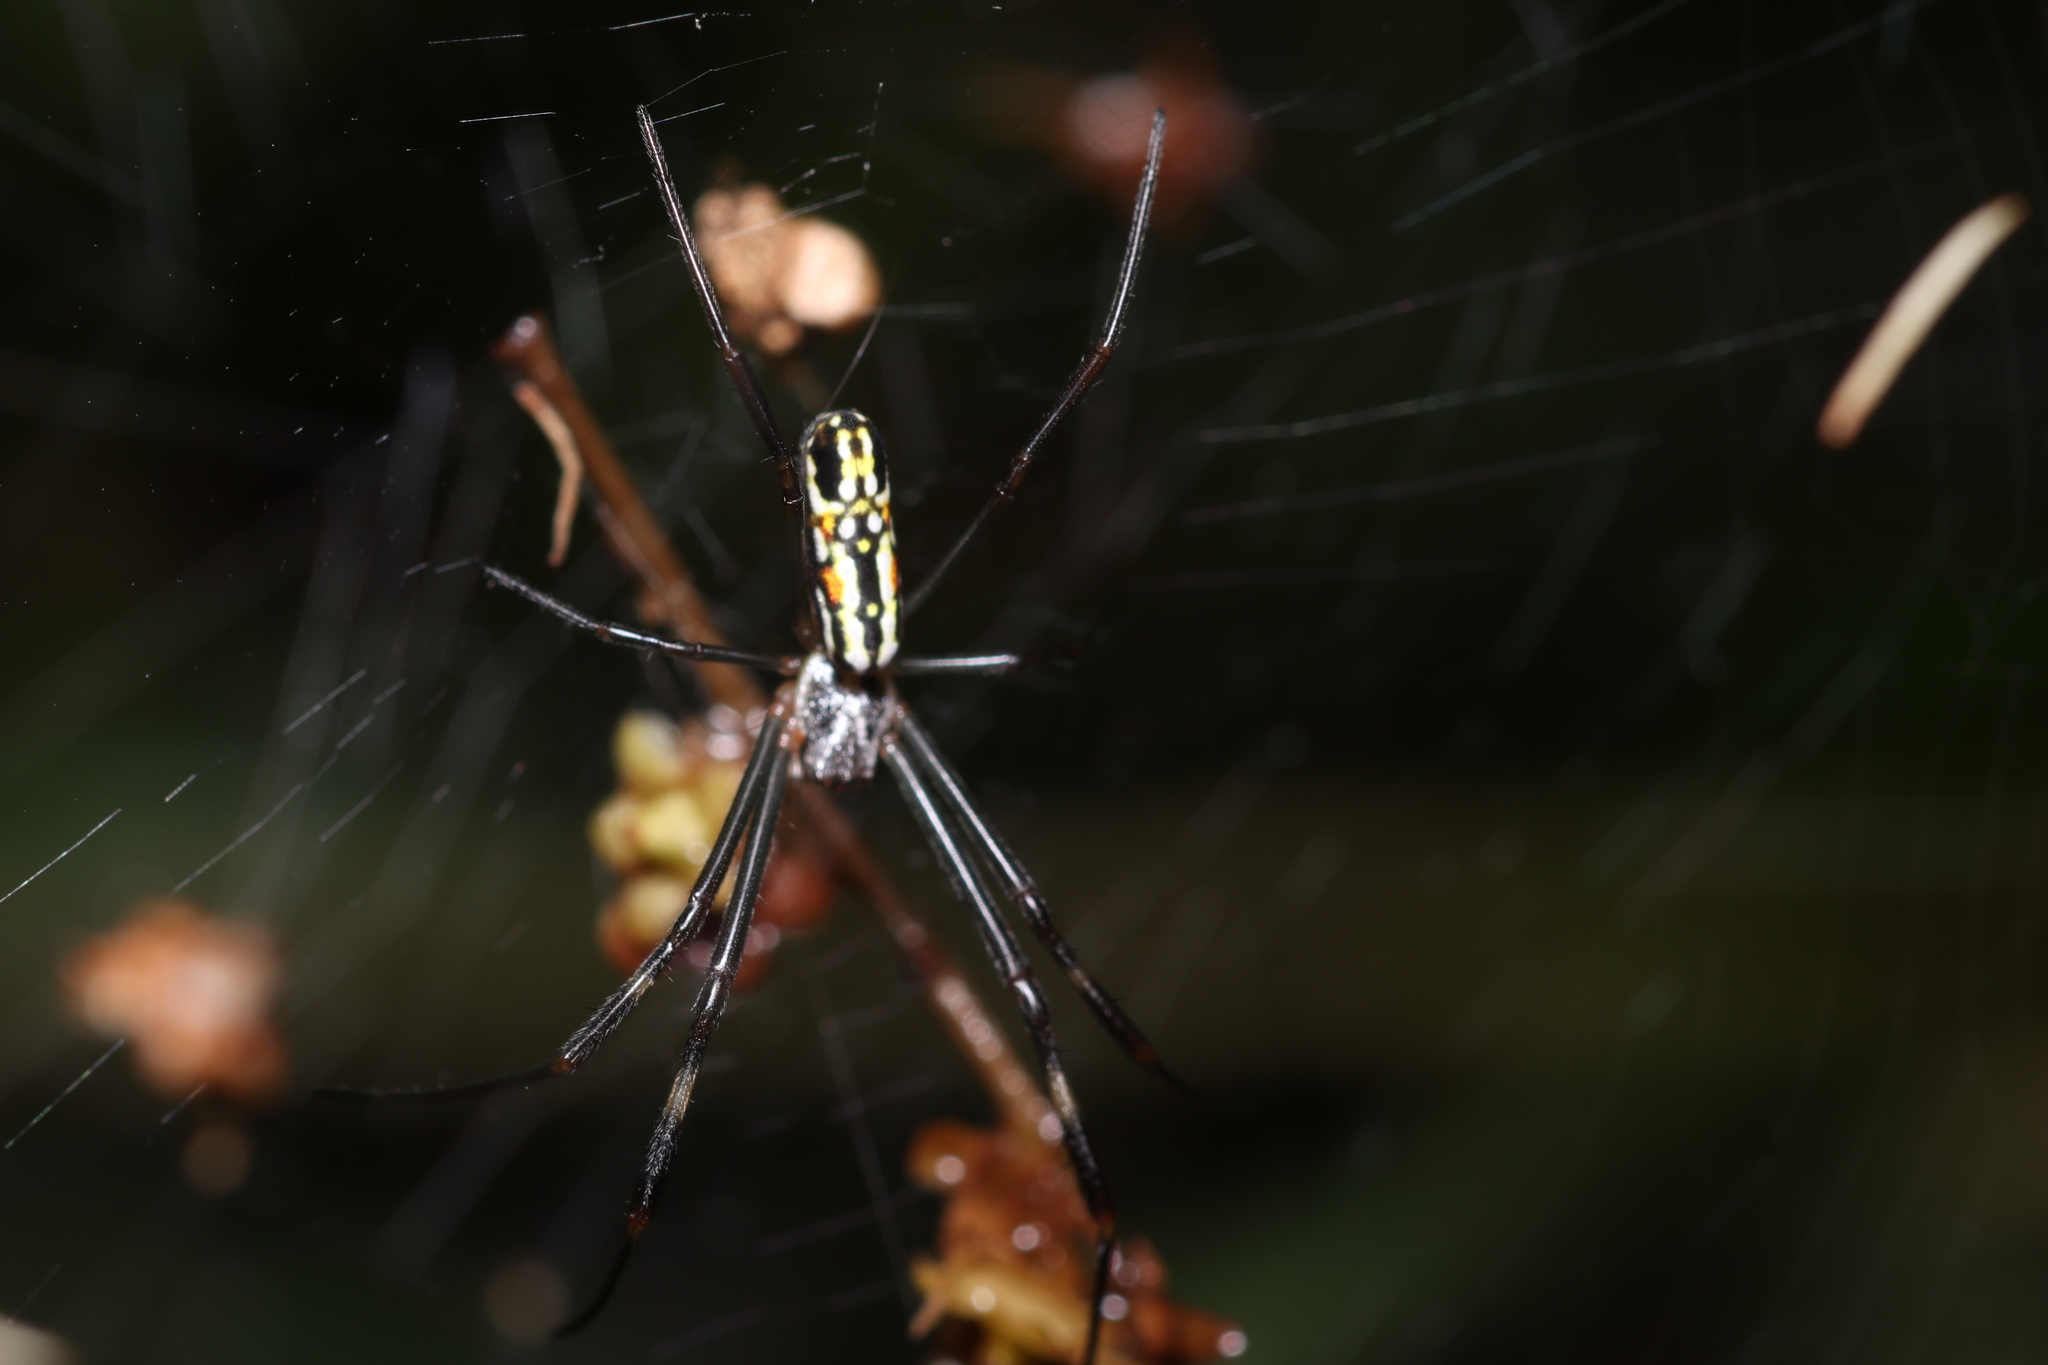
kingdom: Animalia
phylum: Arthropoda
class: Arachnida
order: Araneae
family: Araneidae
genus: Trichonephila
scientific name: Trichonephila clavipes
